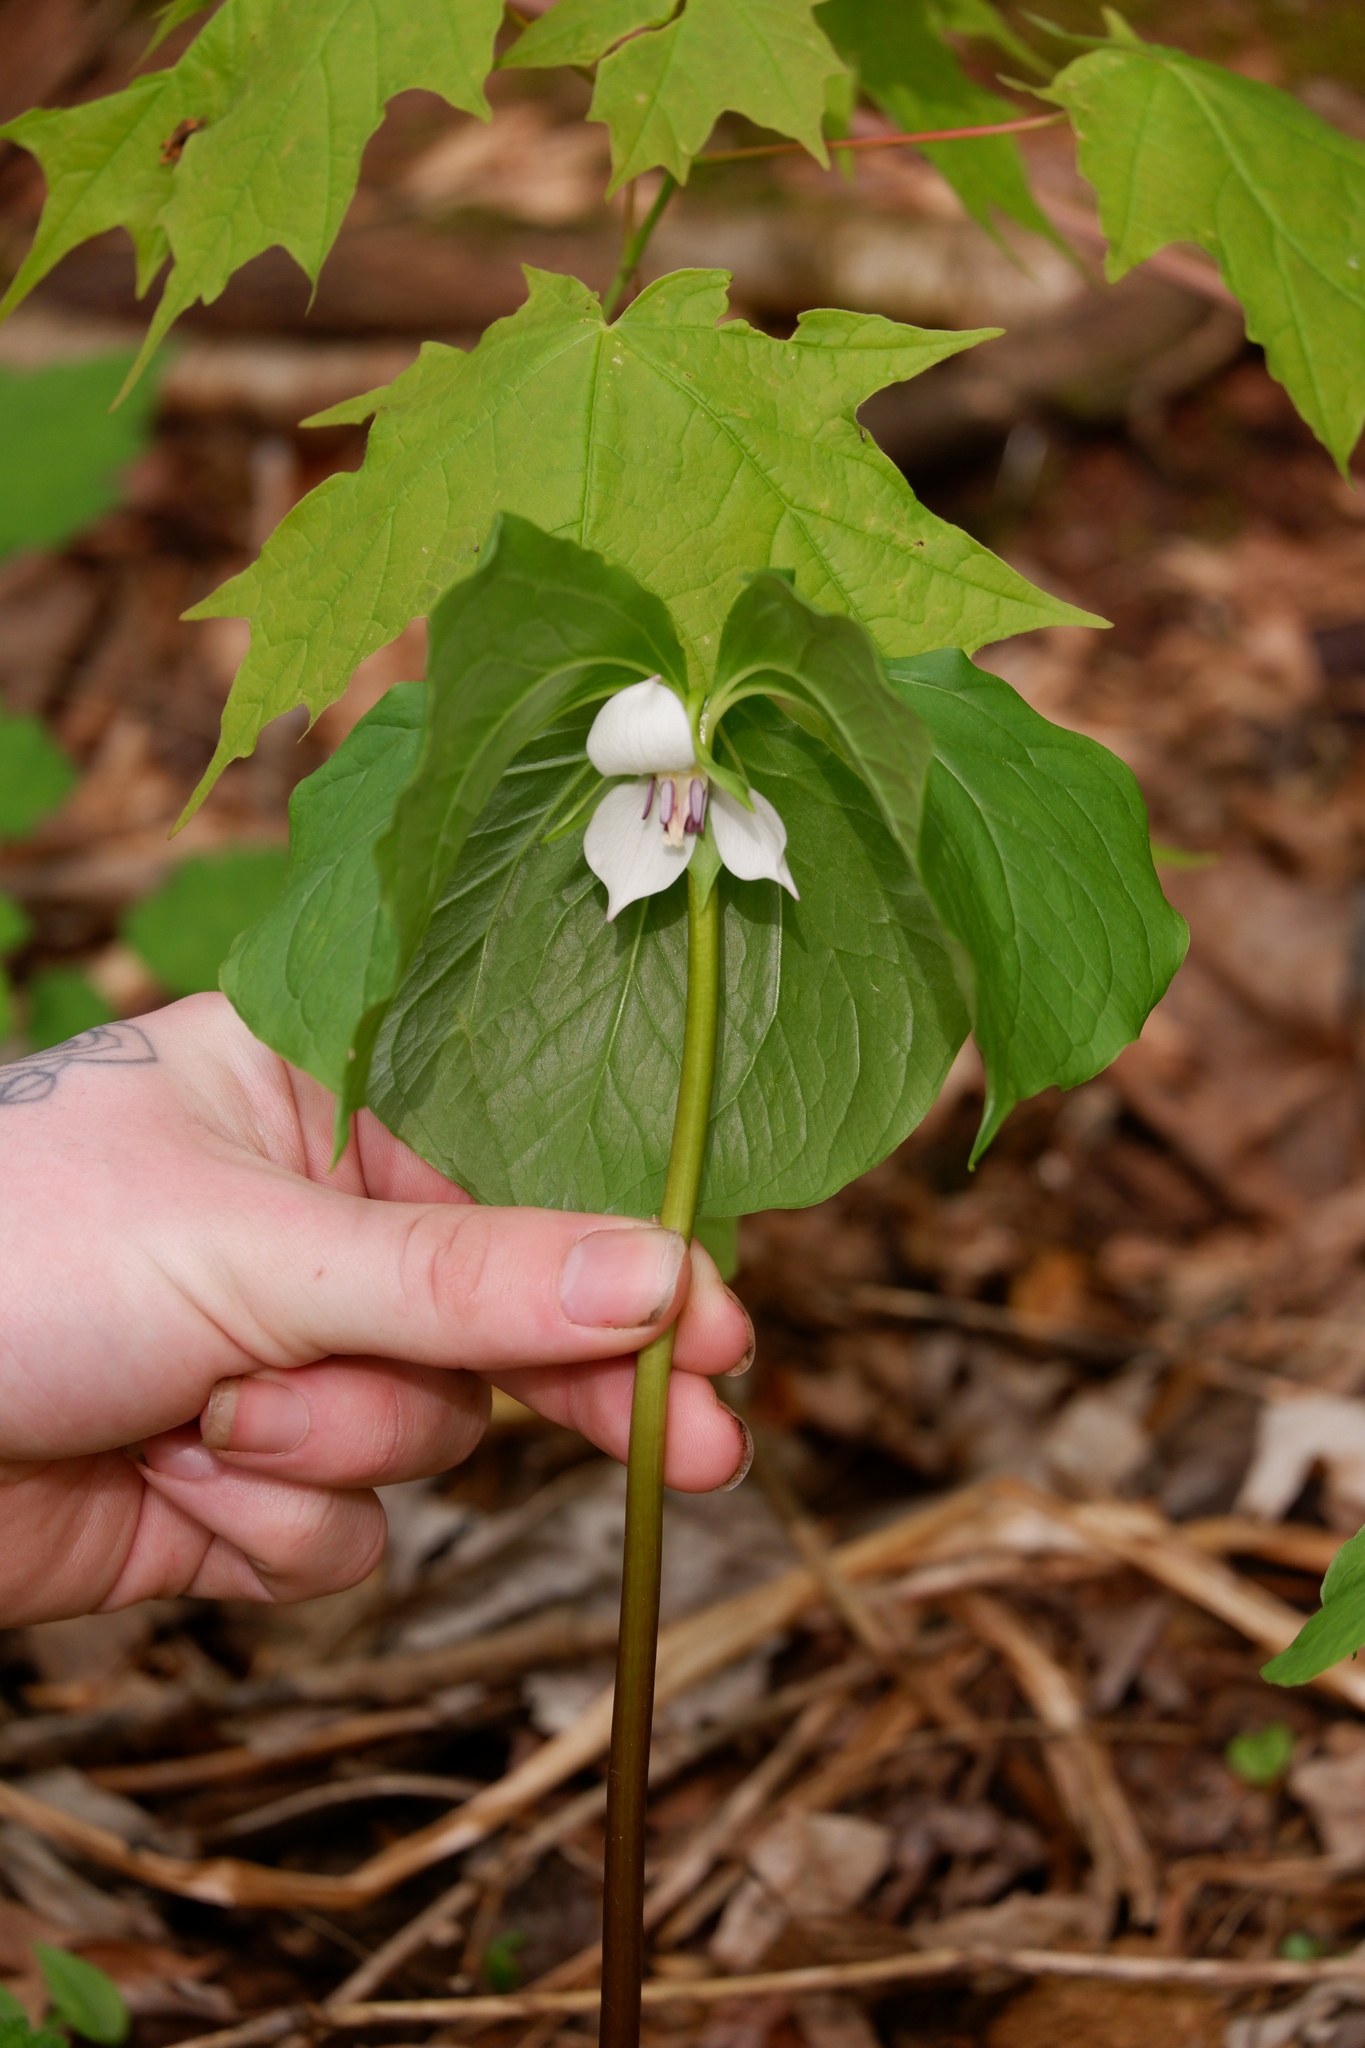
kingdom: Plantae
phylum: Tracheophyta
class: Liliopsida
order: Liliales
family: Melanthiaceae
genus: Trillium
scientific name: Trillium cernuum
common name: Nodding trillium
